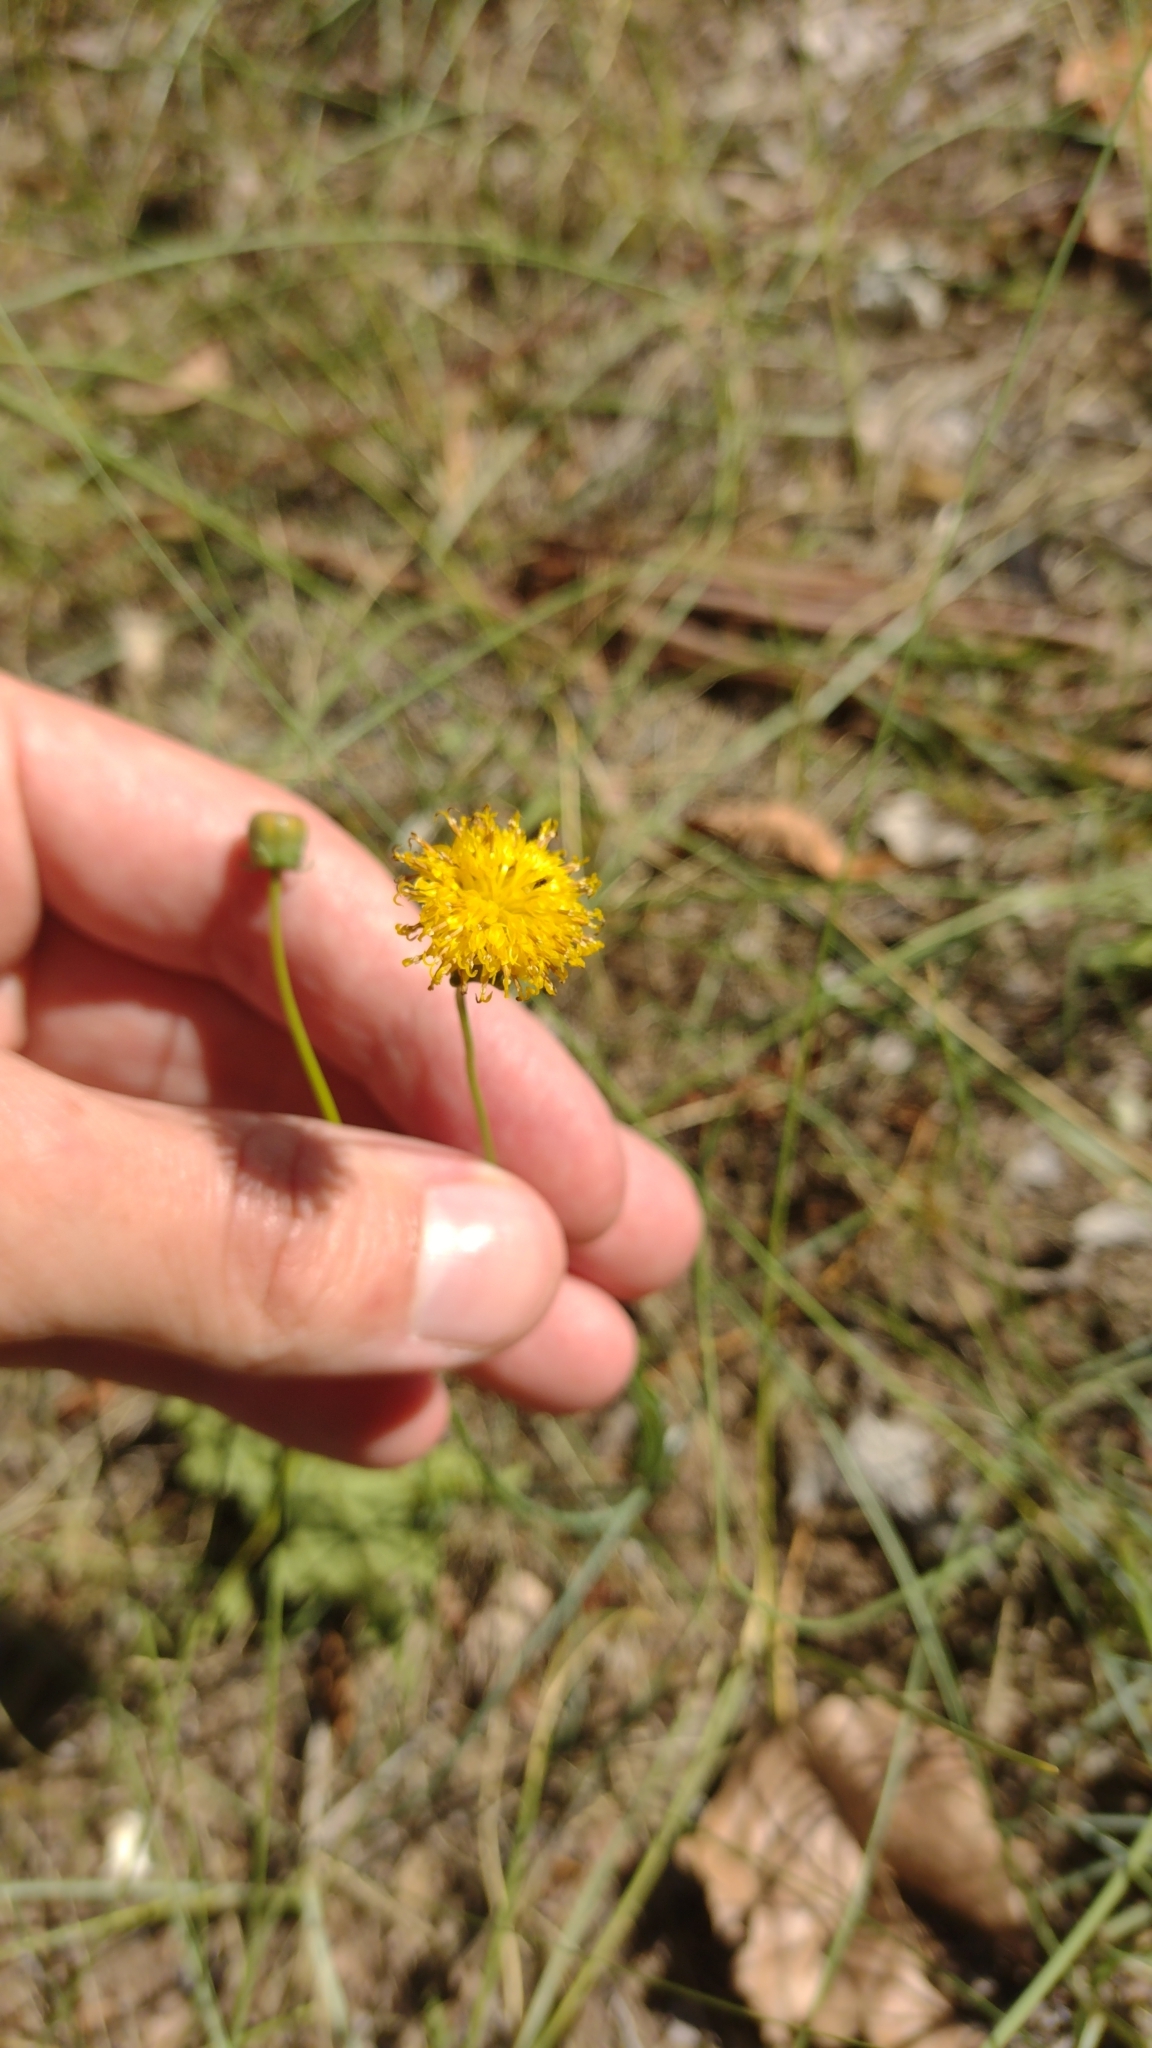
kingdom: Plantae
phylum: Tracheophyta
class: Magnoliopsida
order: Asterales
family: Asteraceae
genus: Thelesperma
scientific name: Thelesperma megapotamicum
